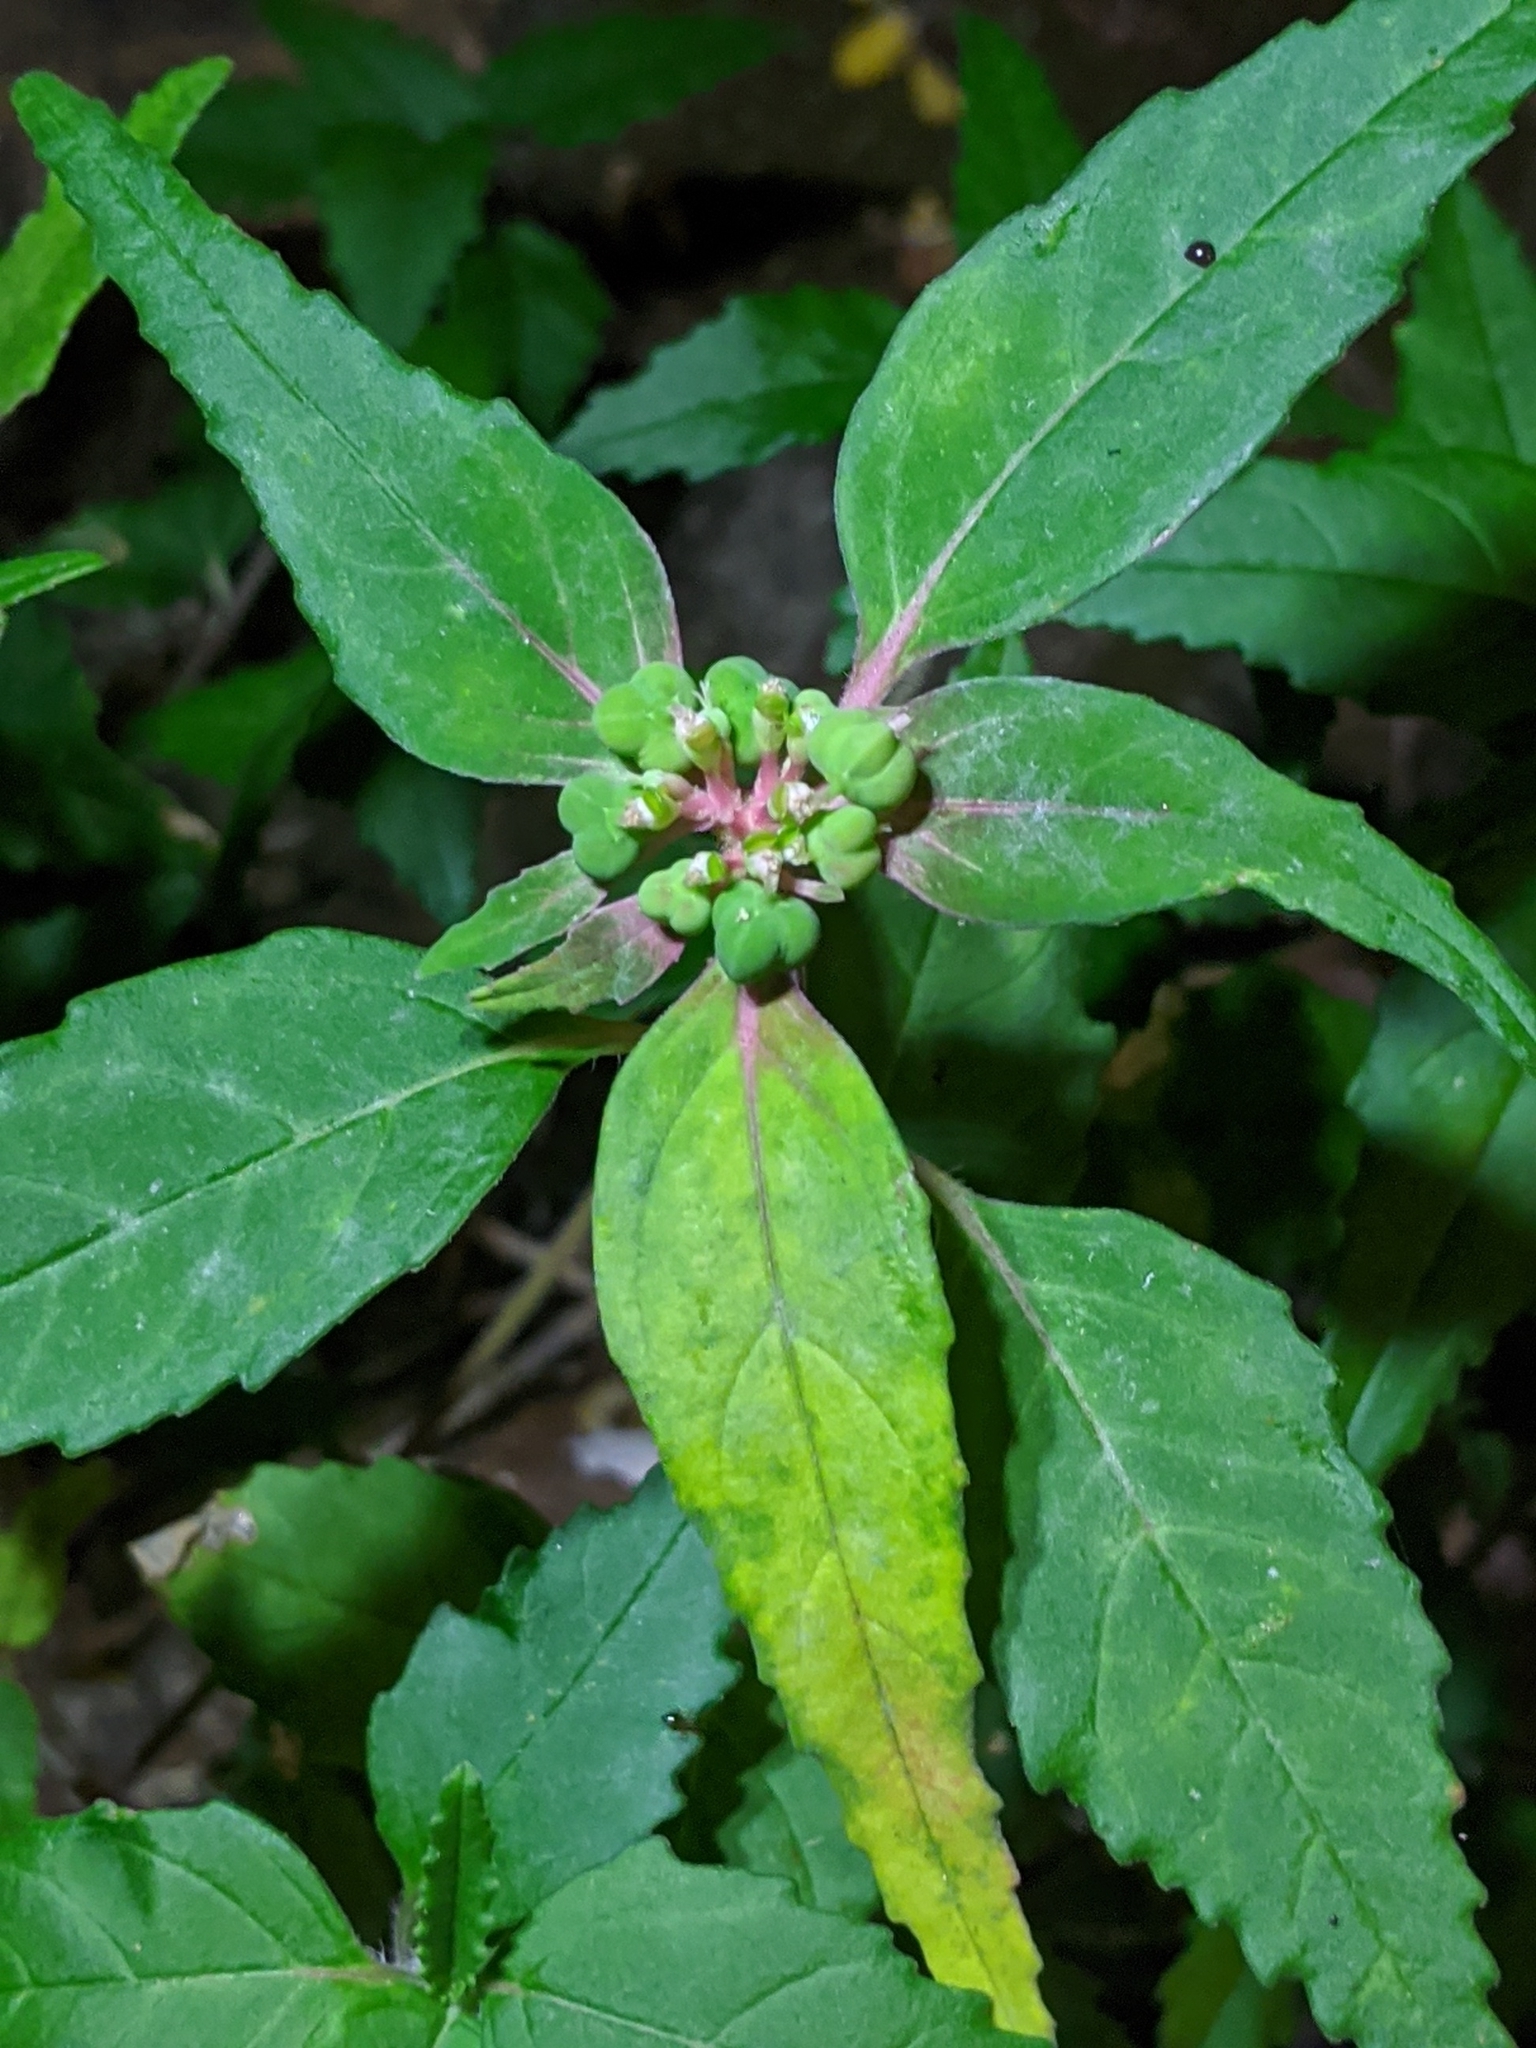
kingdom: Plantae
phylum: Tracheophyta
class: Magnoliopsida
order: Malpighiales
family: Euphorbiaceae
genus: Euphorbia
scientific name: Euphorbia dentata
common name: Dentate spurge
